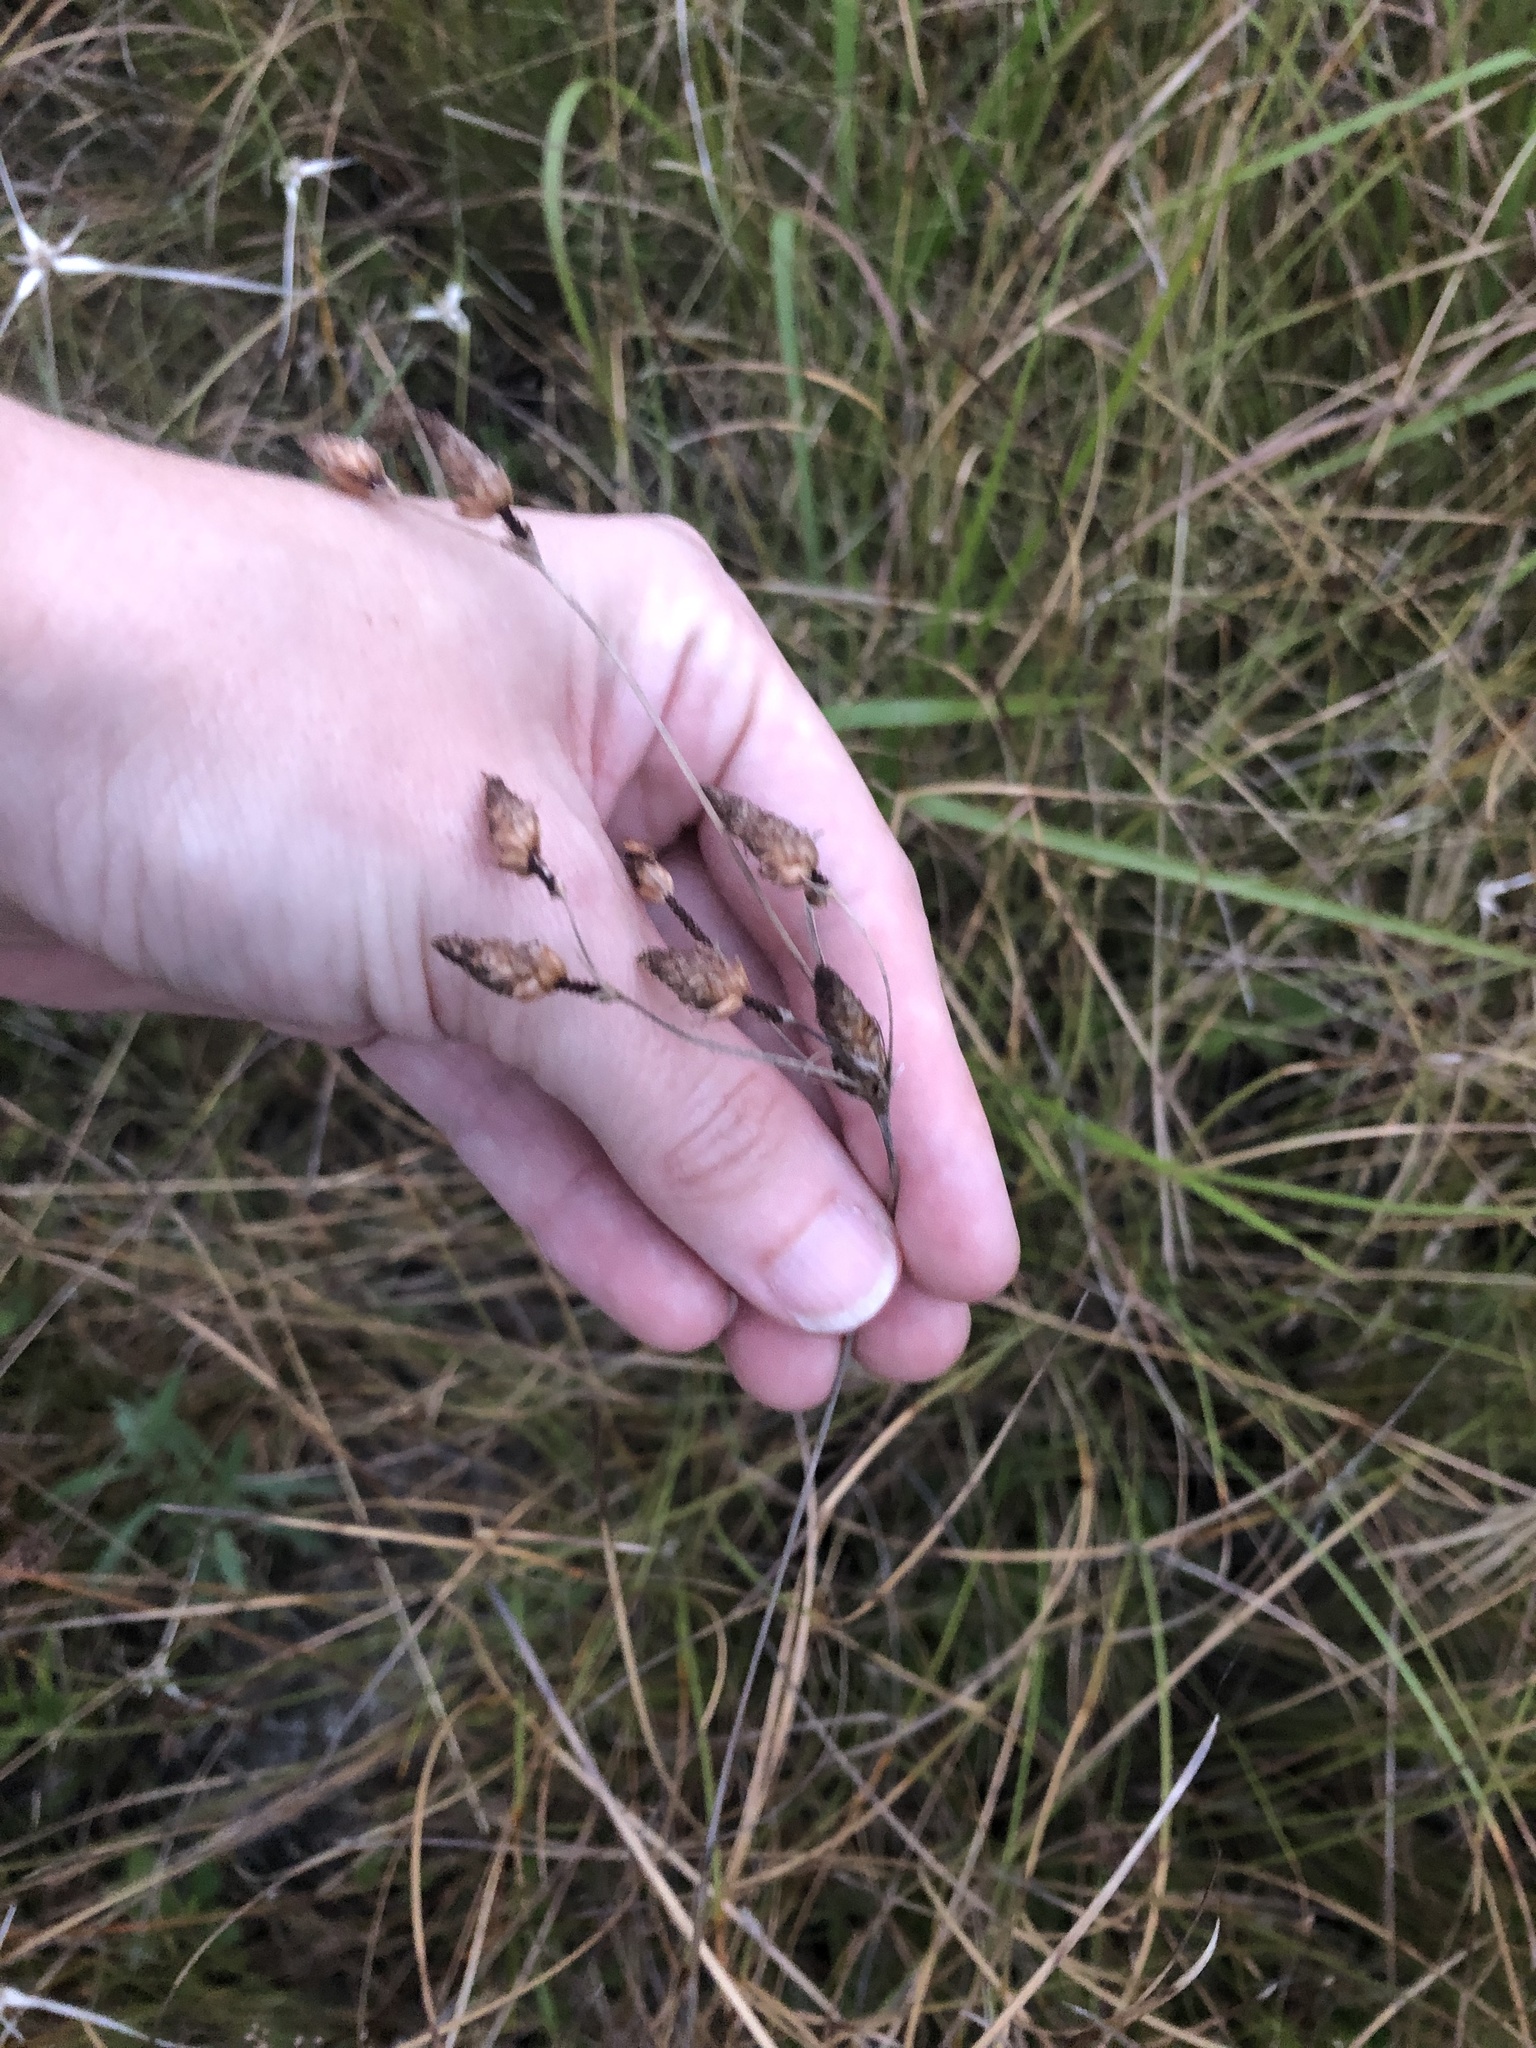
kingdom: Plantae
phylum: Tracheophyta
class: Liliopsida
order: Poales
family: Cyperaceae
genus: Fimbristylis
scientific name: Fimbristylis spadicea
